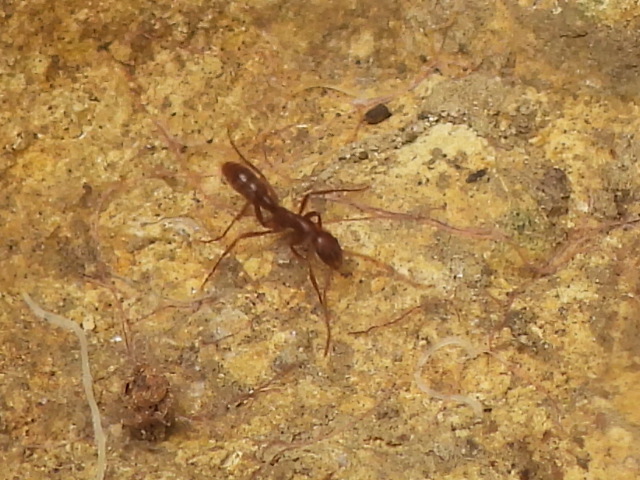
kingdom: Animalia
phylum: Arthropoda
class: Insecta
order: Hymenoptera
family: Formicidae
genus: Leptogenys
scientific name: Leptogenys elongata
